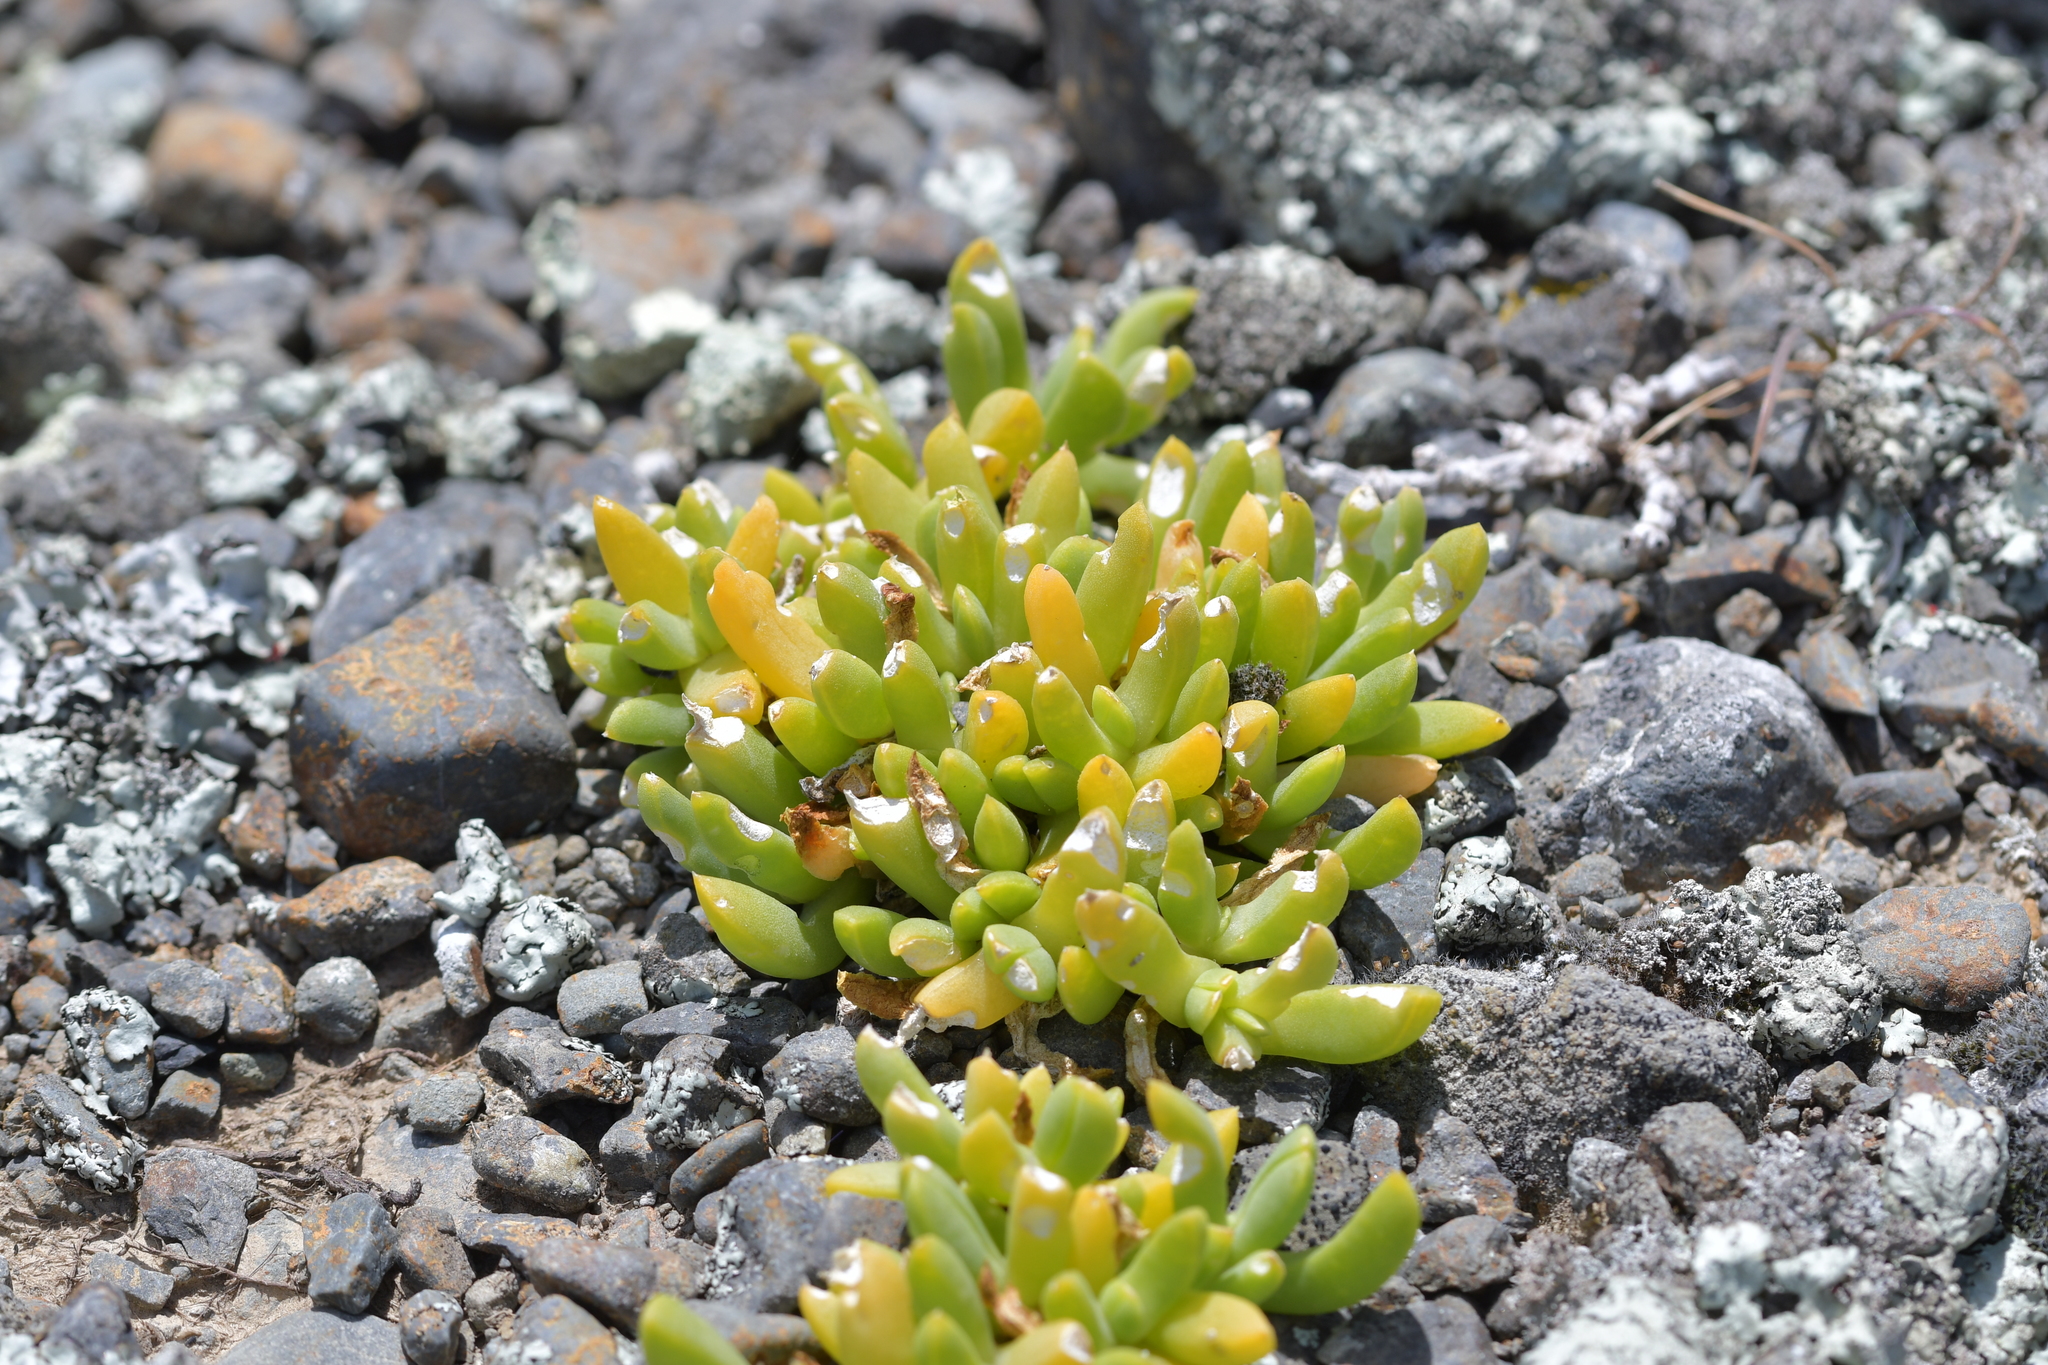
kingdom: Plantae
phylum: Tracheophyta
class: Magnoliopsida
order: Caryophyllales
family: Aizoaceae
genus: Disphyma
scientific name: Disphyma australe
